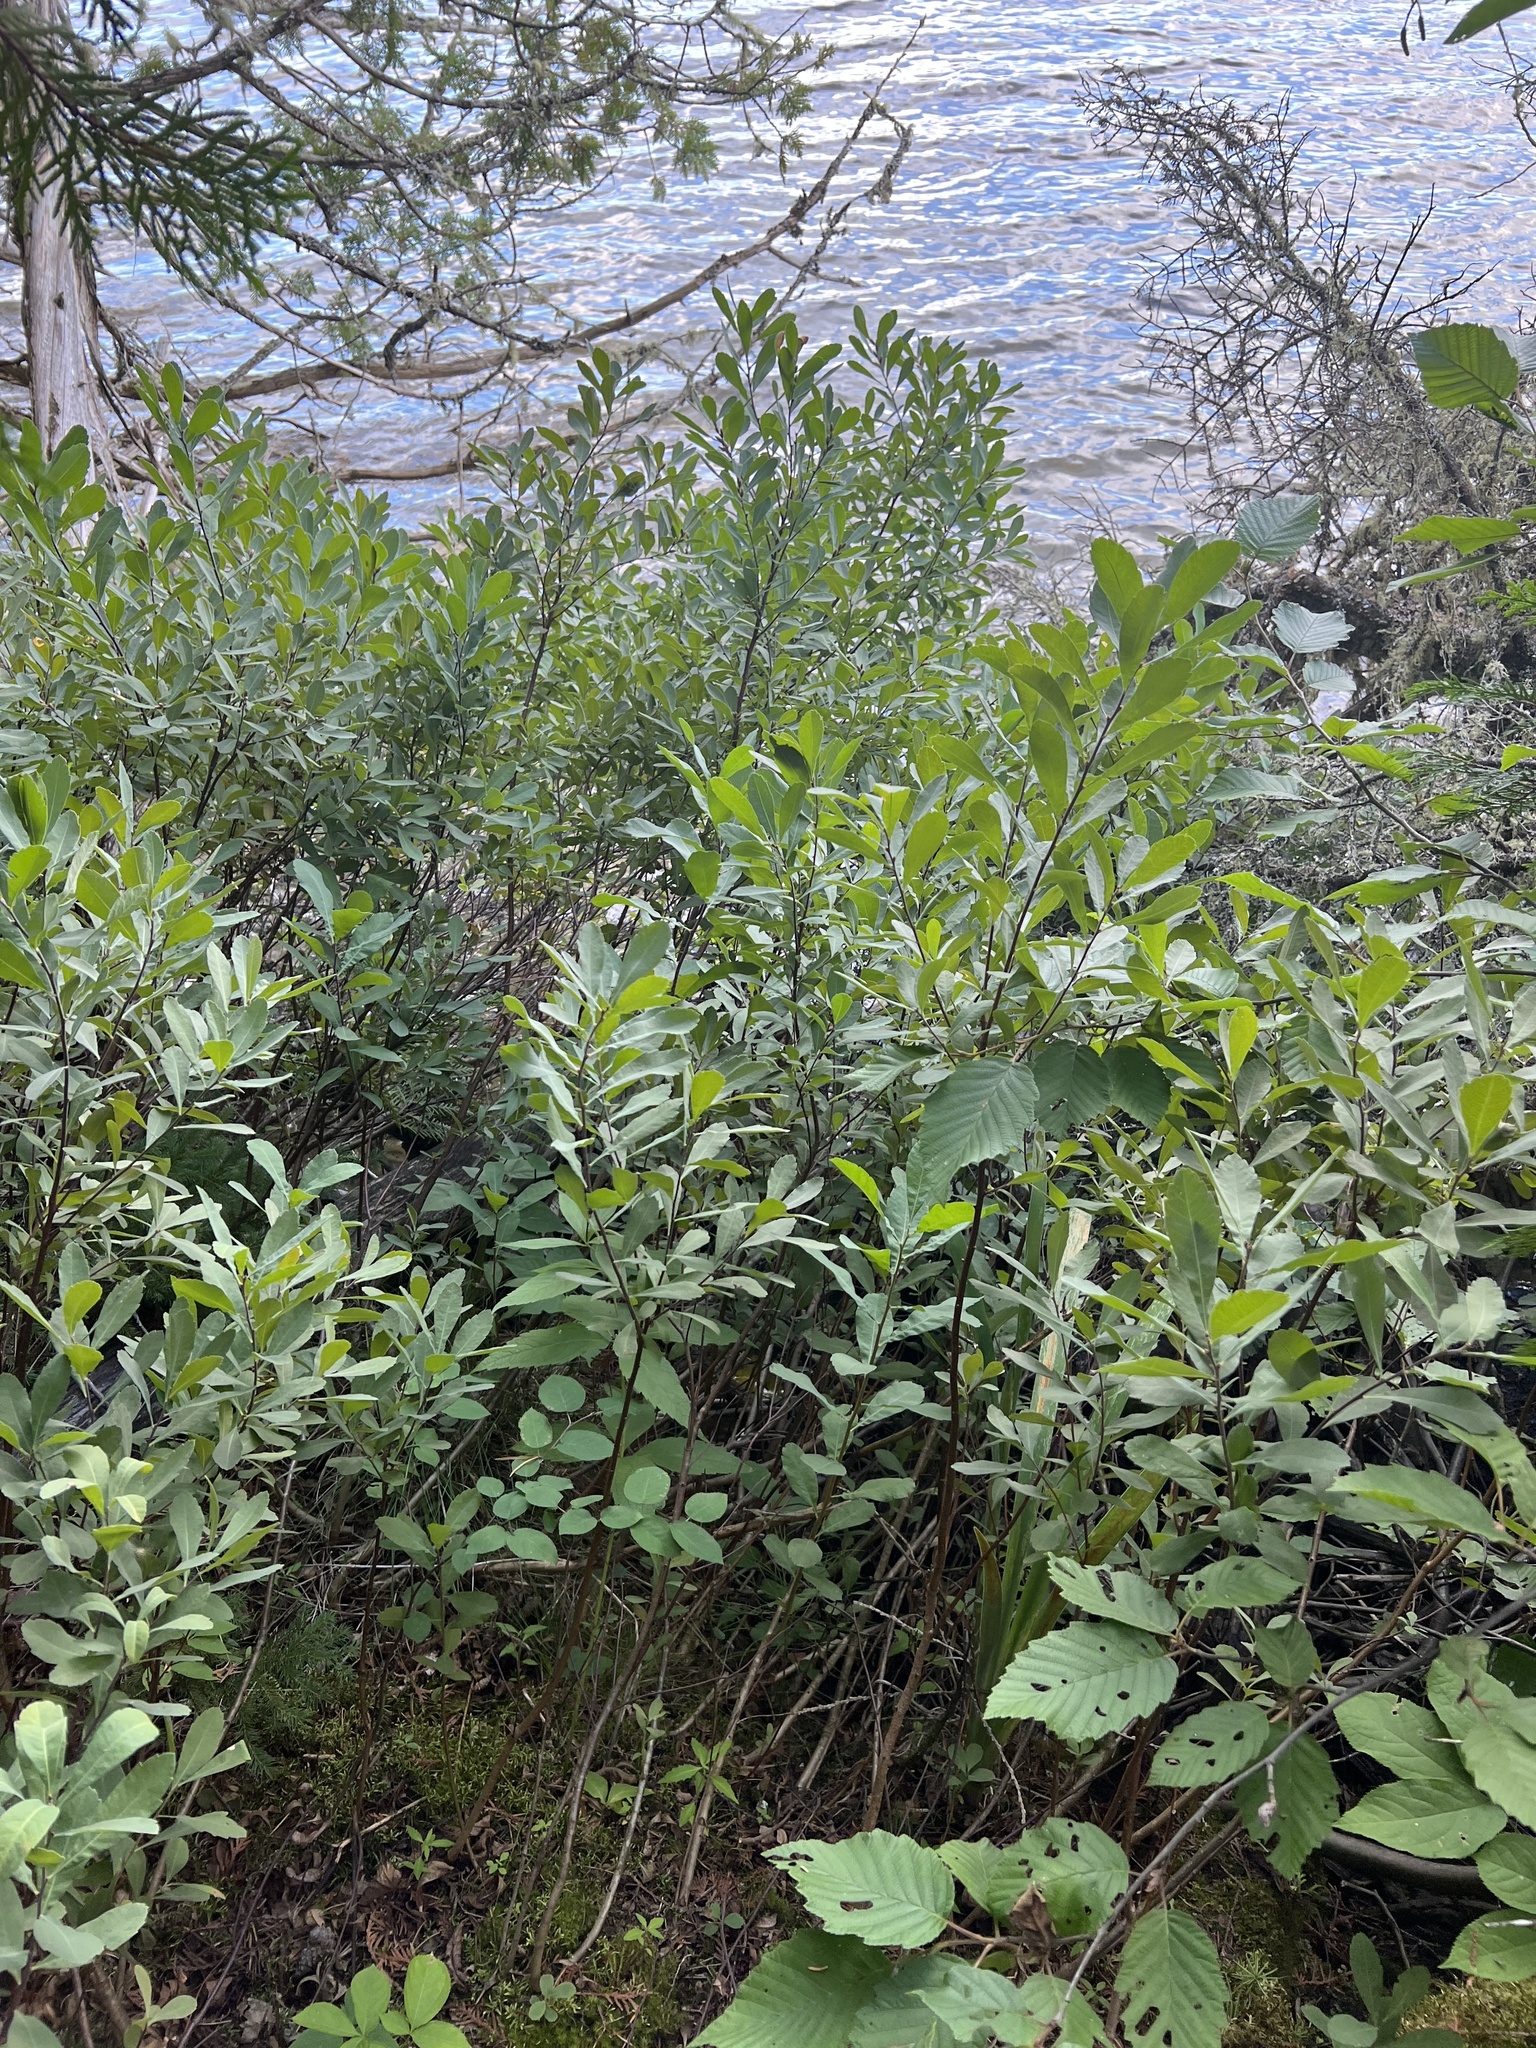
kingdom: Plantae
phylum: Tracheophyta
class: Magnoliopsida
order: Fagales
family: Myricaceae
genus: Myrica
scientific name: Myrica gale
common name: Sweet gale
